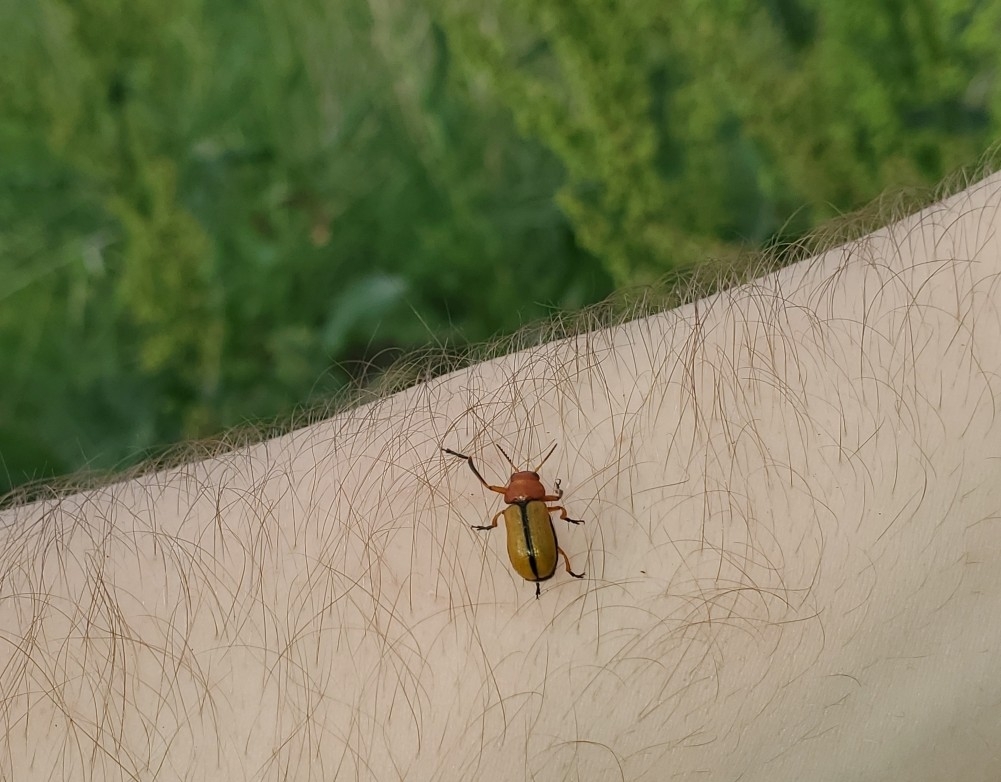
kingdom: Animalia
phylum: Arthropoda
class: Insecta
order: Coleoptera
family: Chrysomelidae
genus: Anomoea
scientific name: Anomoea laticlavia
